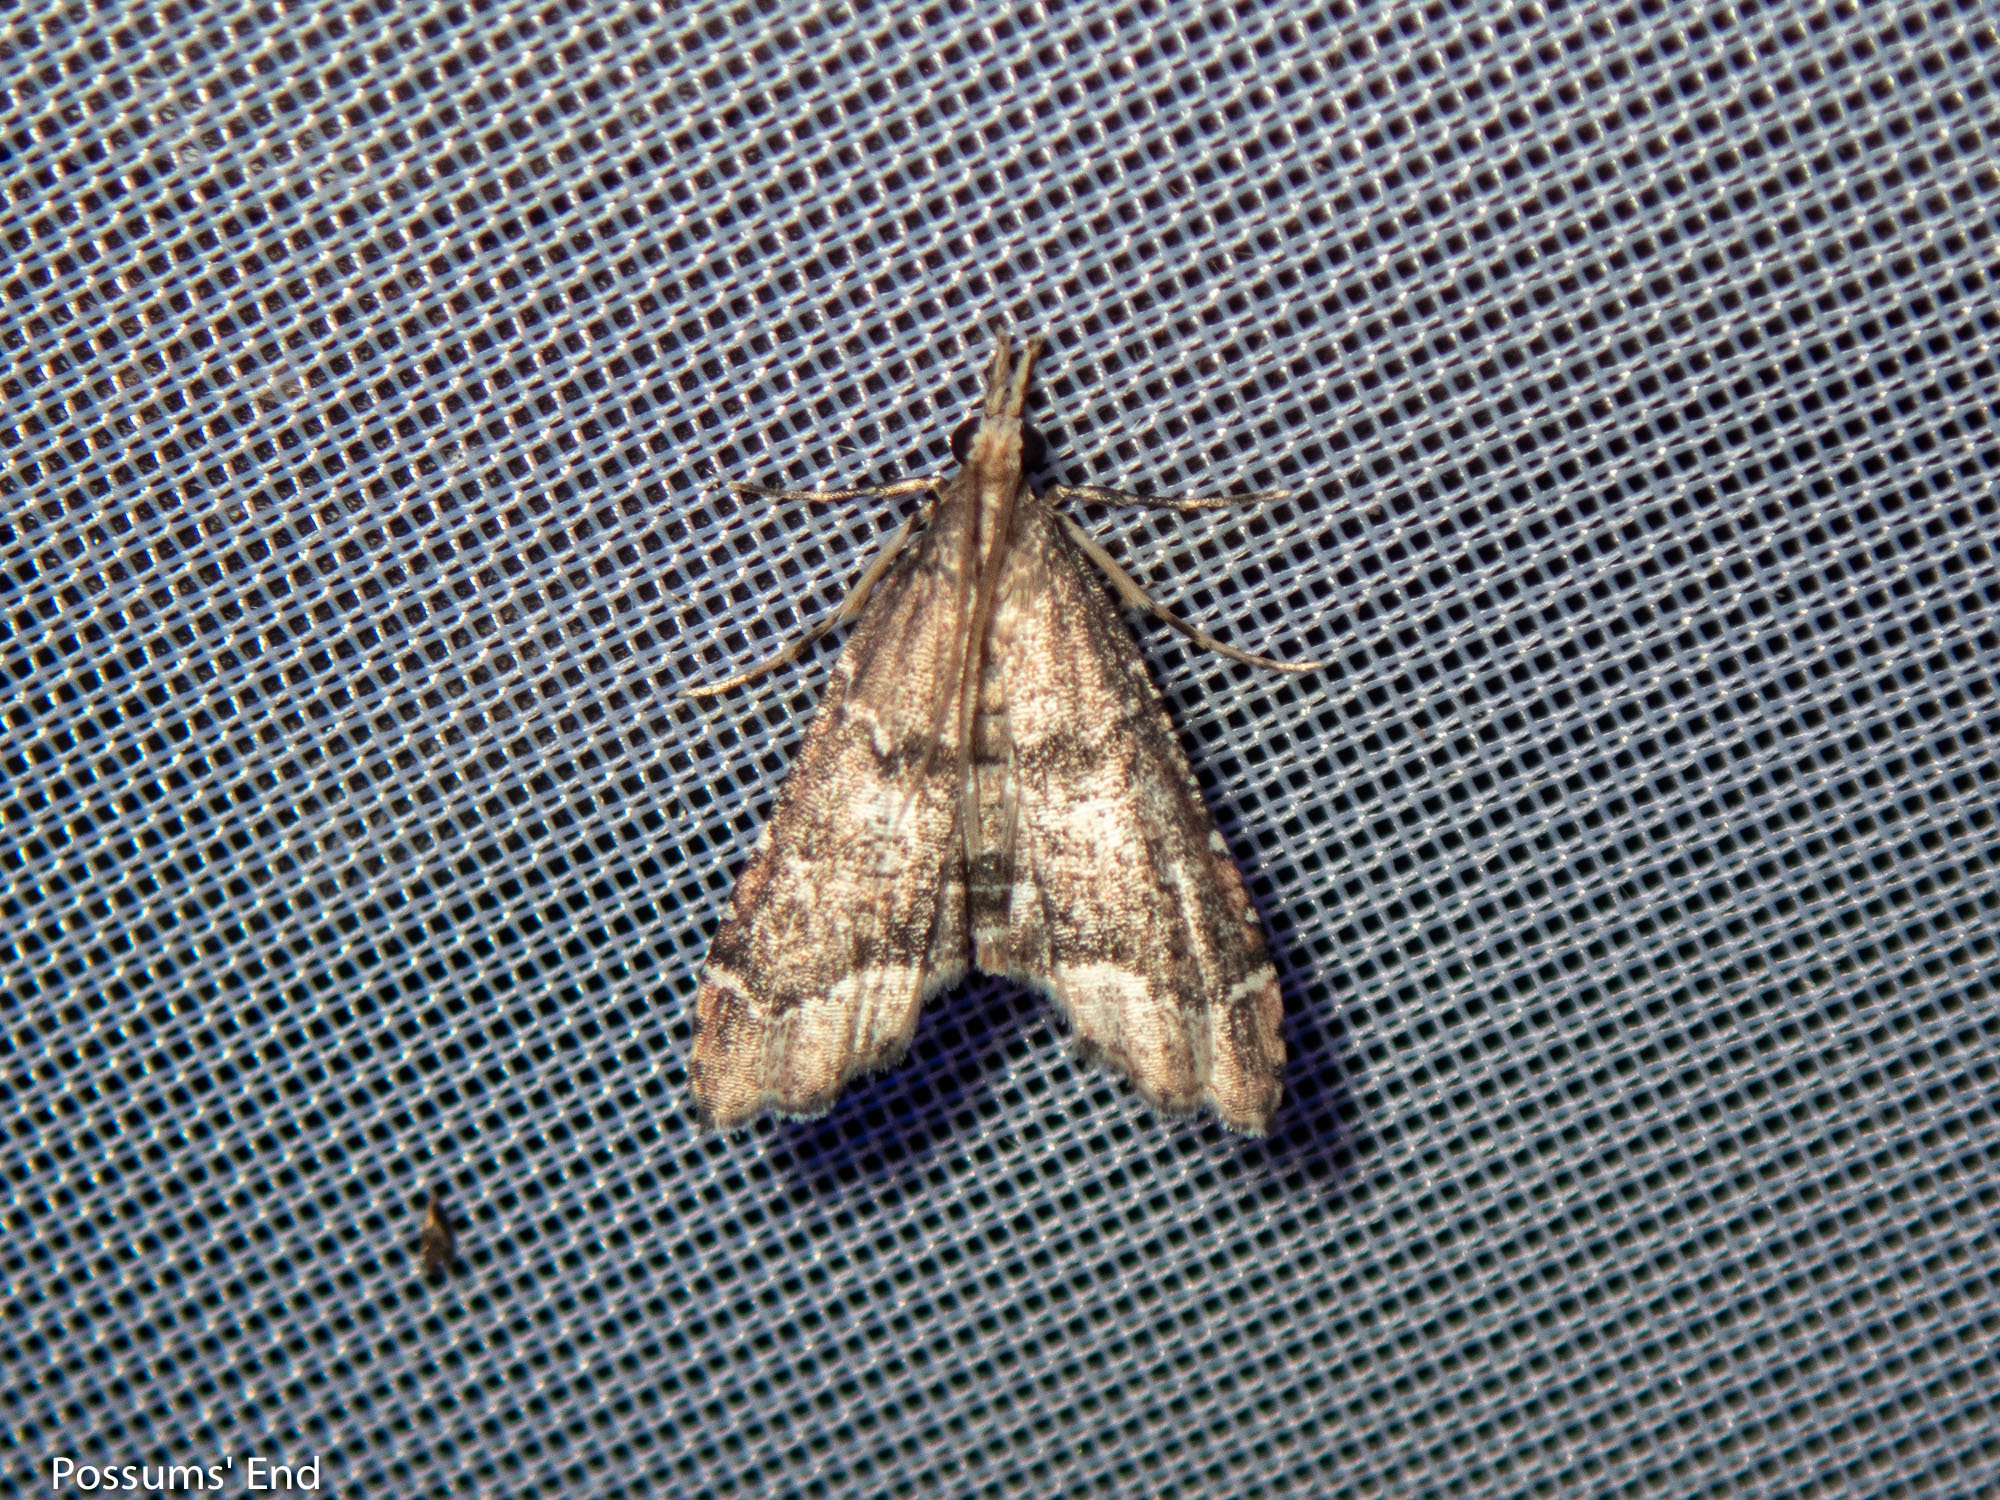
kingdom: Animalia
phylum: Arthropoda
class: Insecta
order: Lepidoptera
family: Crambidae
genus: Diplopseustis
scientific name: Diplopseustis perieresalis
